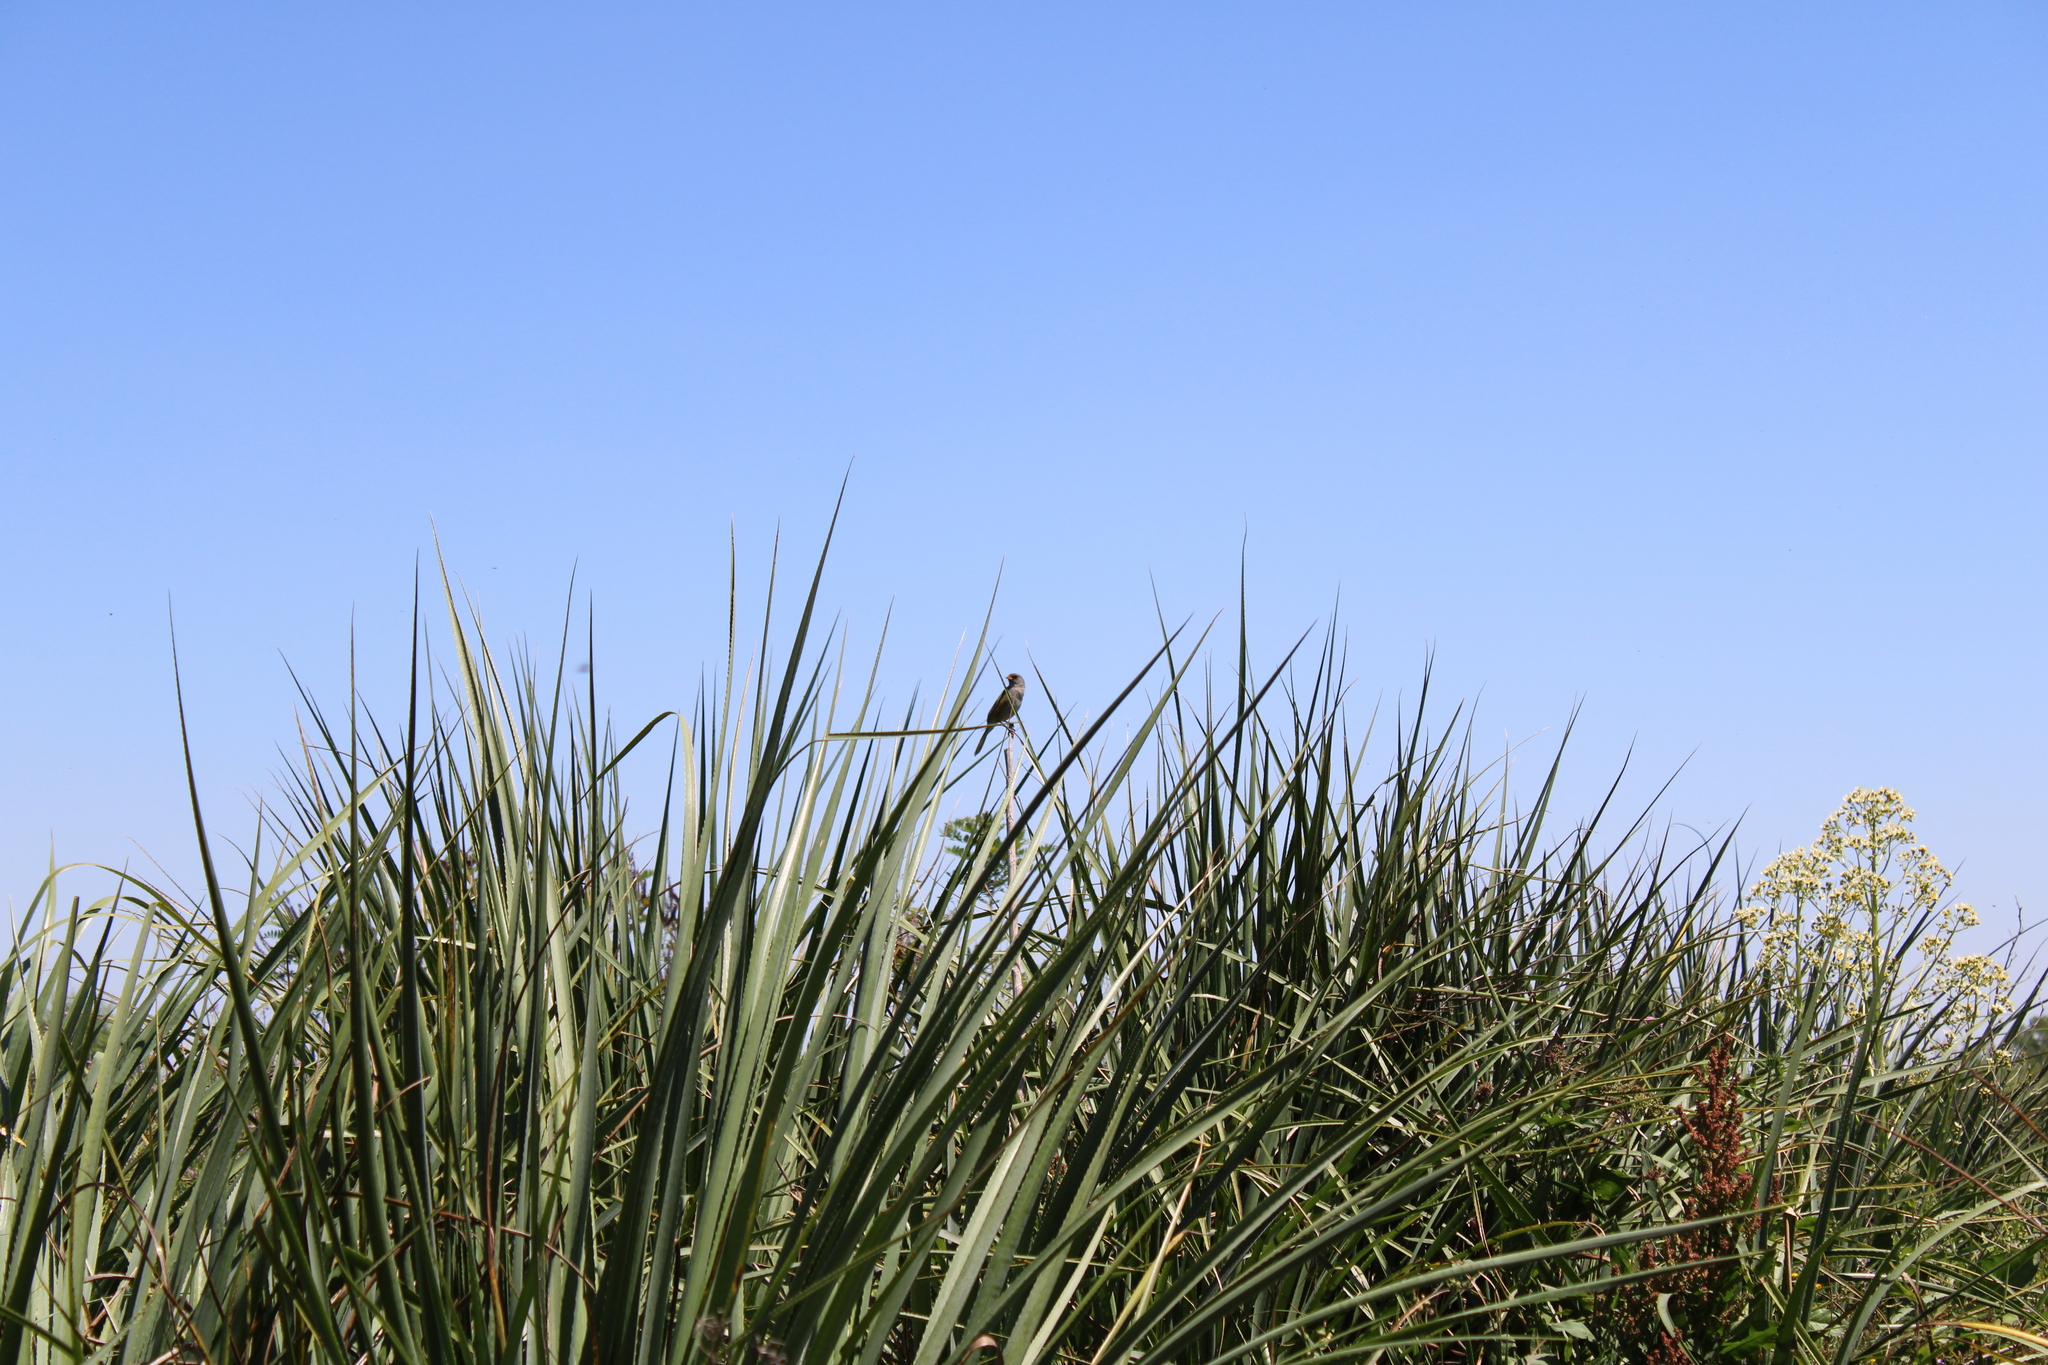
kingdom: Animalia
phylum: Chordata
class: Aves
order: Passeriformes
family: Thraupidae
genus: Embernagra
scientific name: Embernagra platensis
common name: Pampa finch
